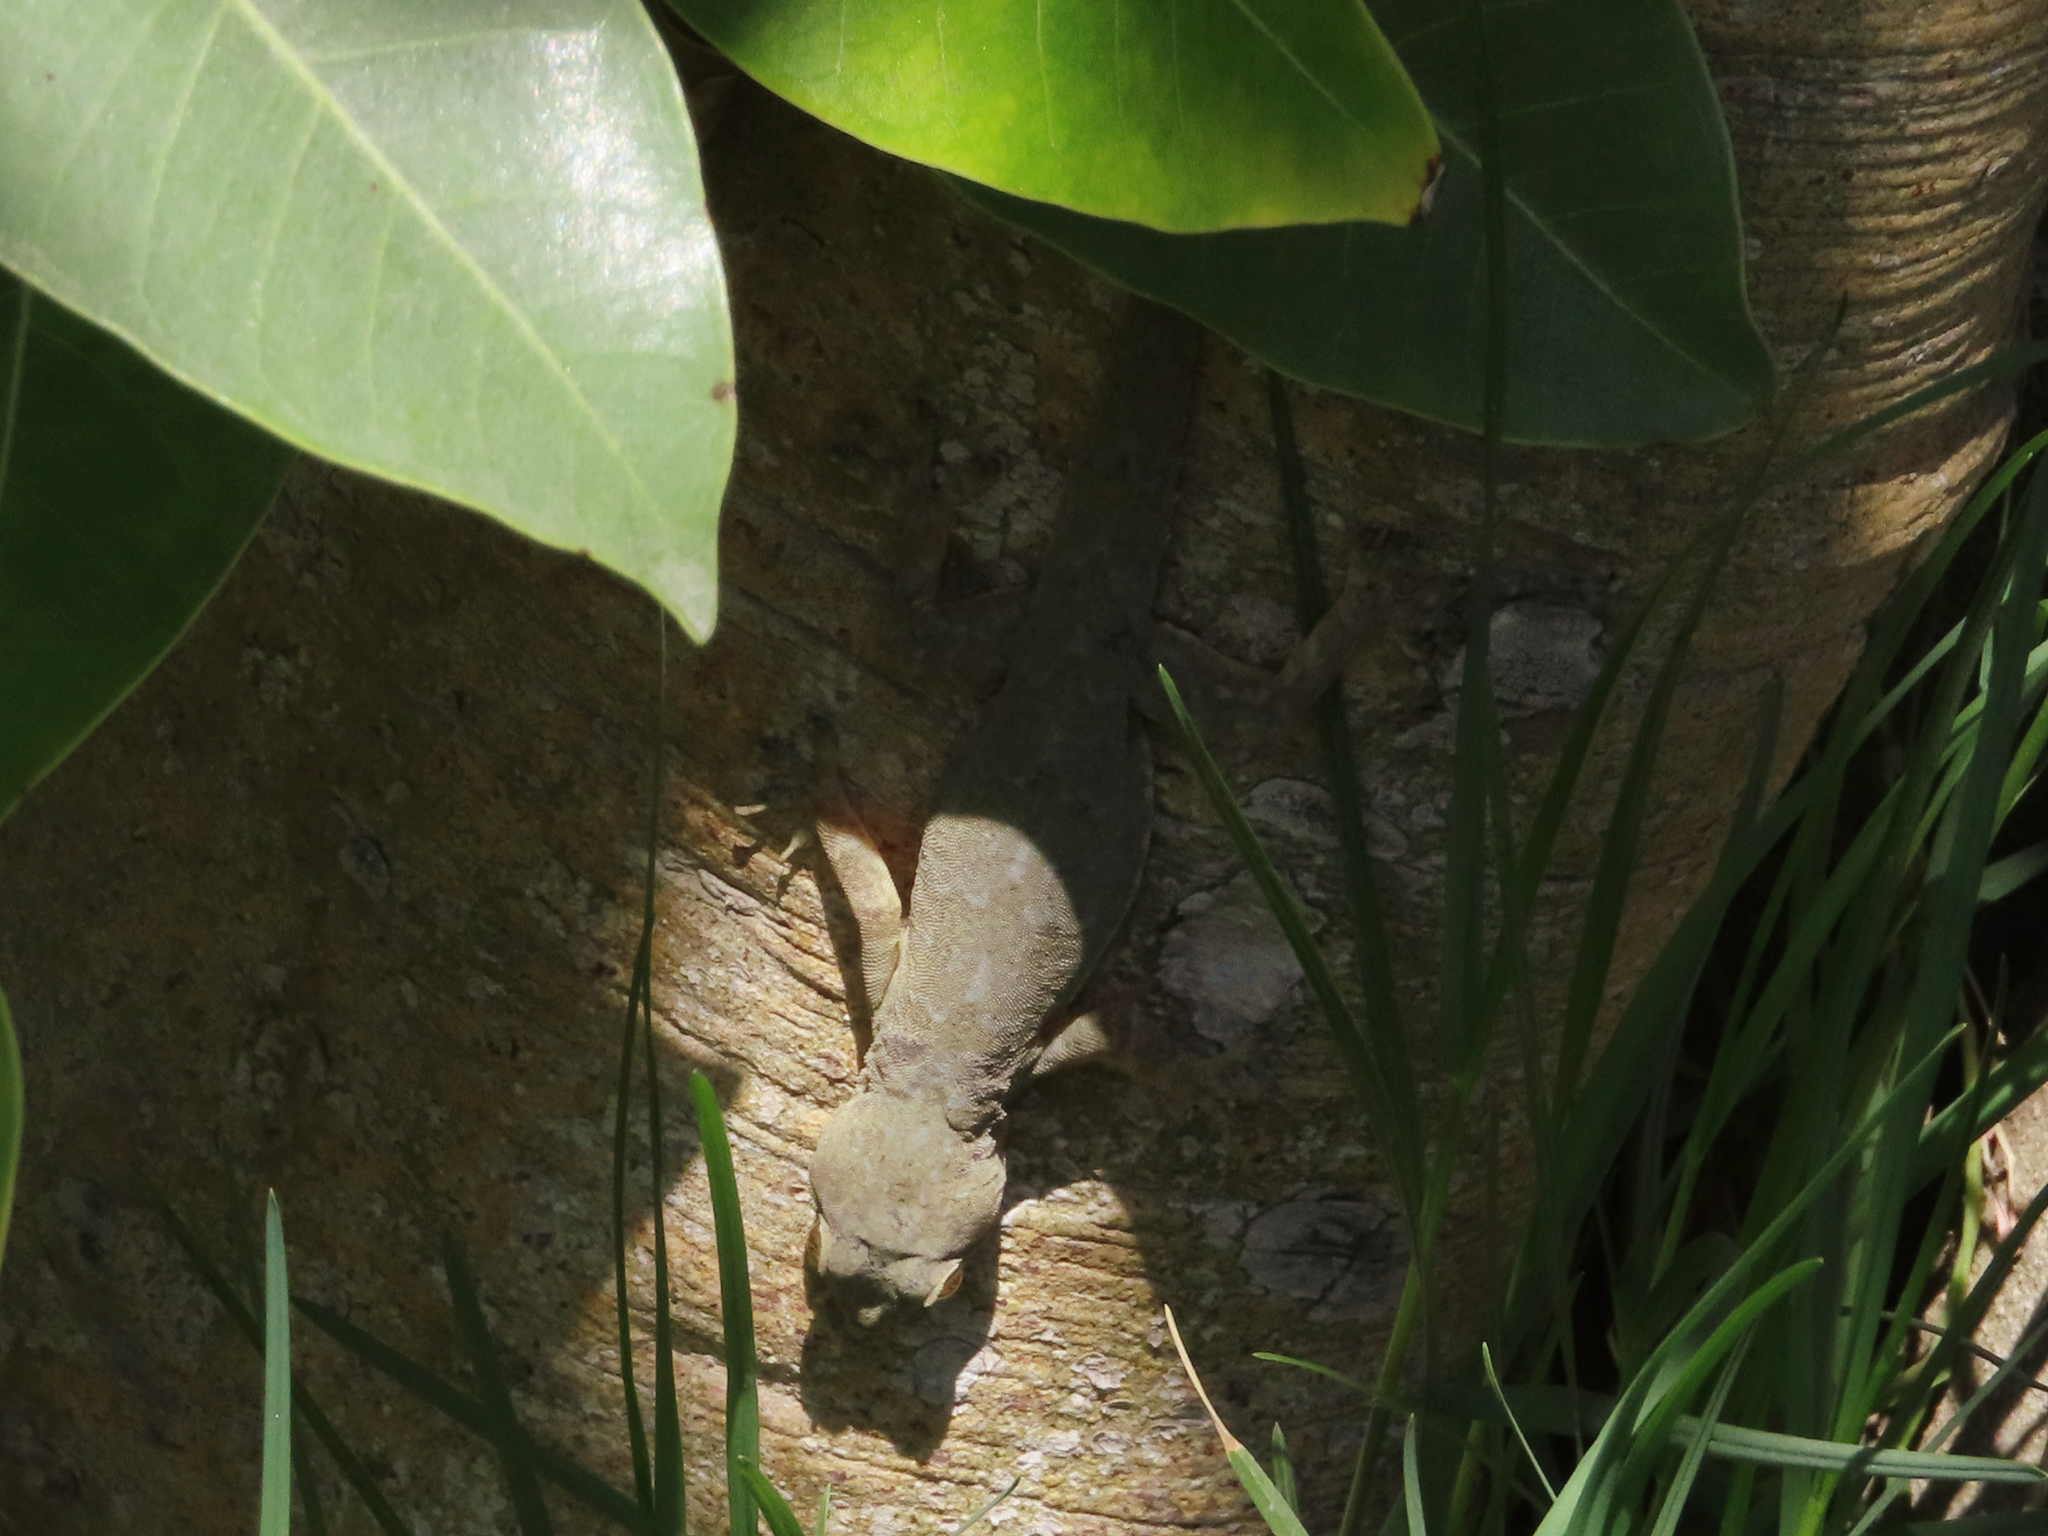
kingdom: Animalia
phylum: Chordata
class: Squamata
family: Gekkonidae
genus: Hemidactylus
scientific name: Hemidactylus flaviviridis
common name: Northern house gecko
